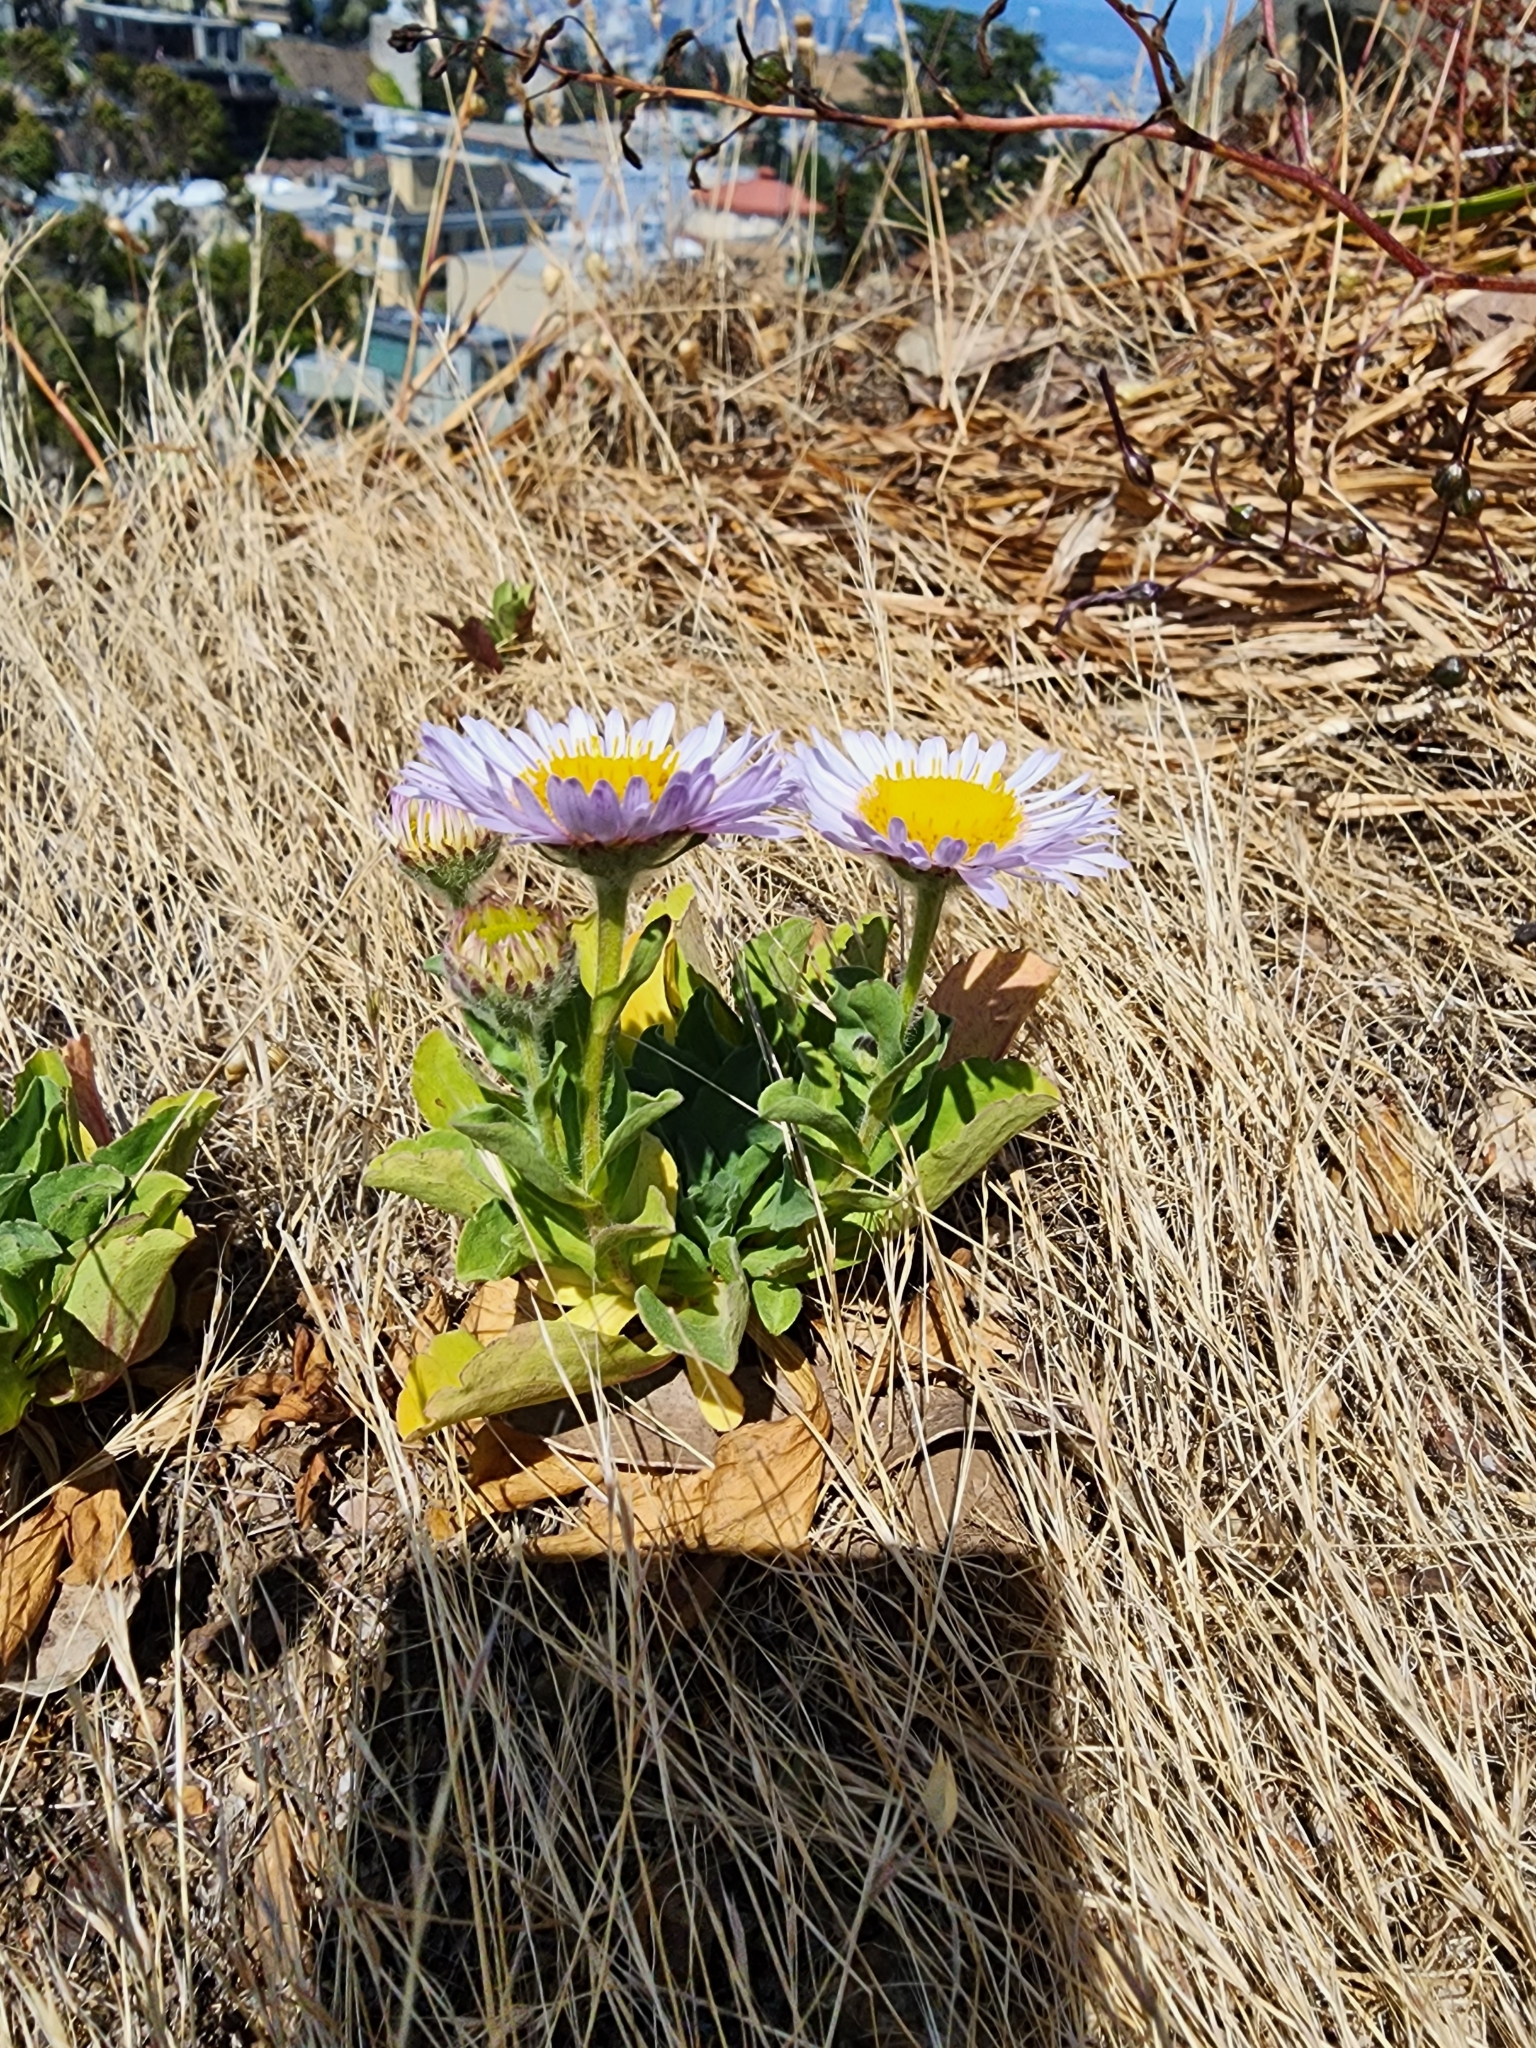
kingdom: Plantae
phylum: Tracheophyta
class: Magnoliopsida
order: Asterales
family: Asteraceae
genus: Erigeron
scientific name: Erigeron glaucus
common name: Seaside daisy
